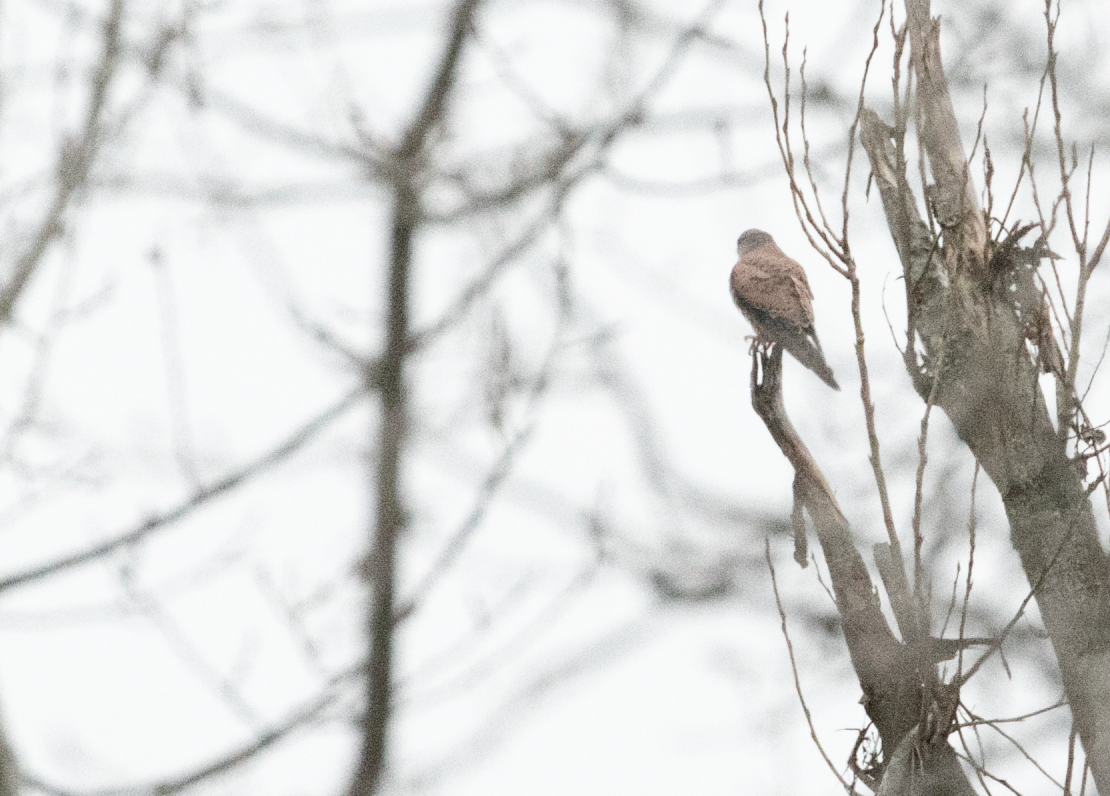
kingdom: Animalia
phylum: Chordata
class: Aves
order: Falconiformes
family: Falconidae
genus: Falco
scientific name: Falco tinnunculus
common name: Common kestrel
